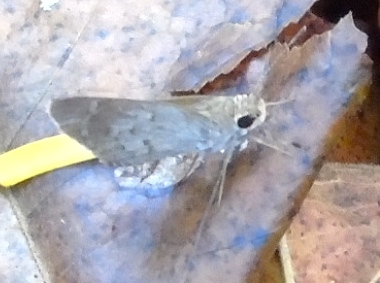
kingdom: Animalia
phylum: Arthropoda
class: Insecta
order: Lepidoptera
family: Hesperiidae
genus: Callimormus
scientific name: Callimormus saturnus
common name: Saturnus skipper
